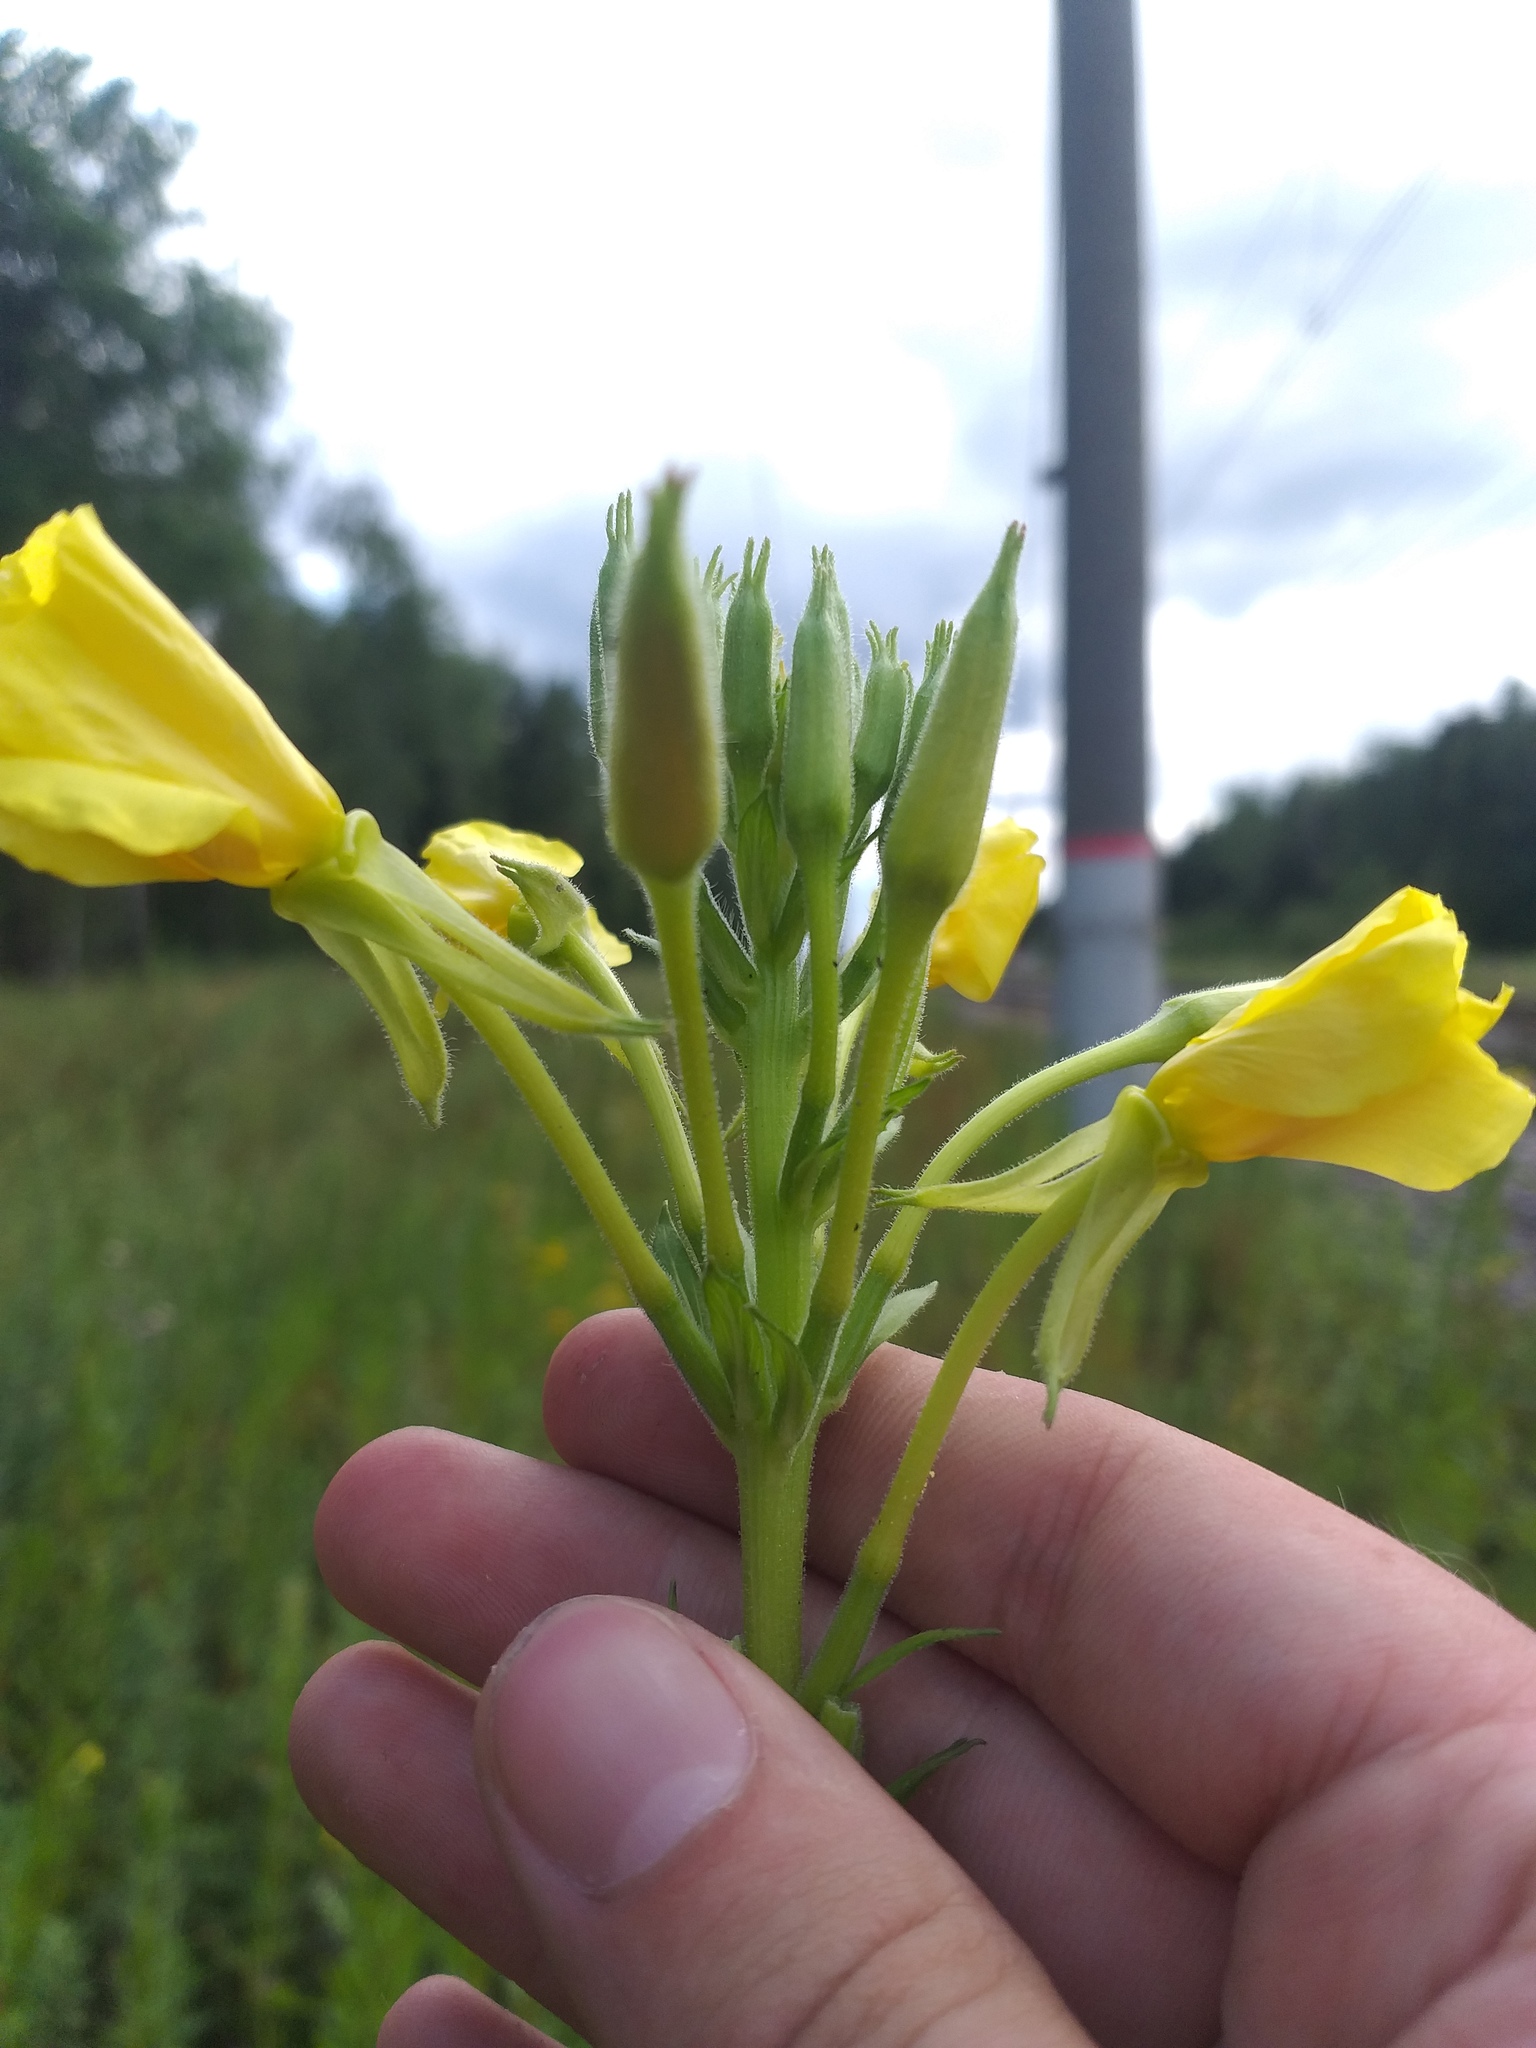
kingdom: Plantae
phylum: Tracheophyta
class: Magnoliopsida
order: Myrtales
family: Onagraceae
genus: Oenothera
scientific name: Oenothera biennis
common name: Common evening-primrose
